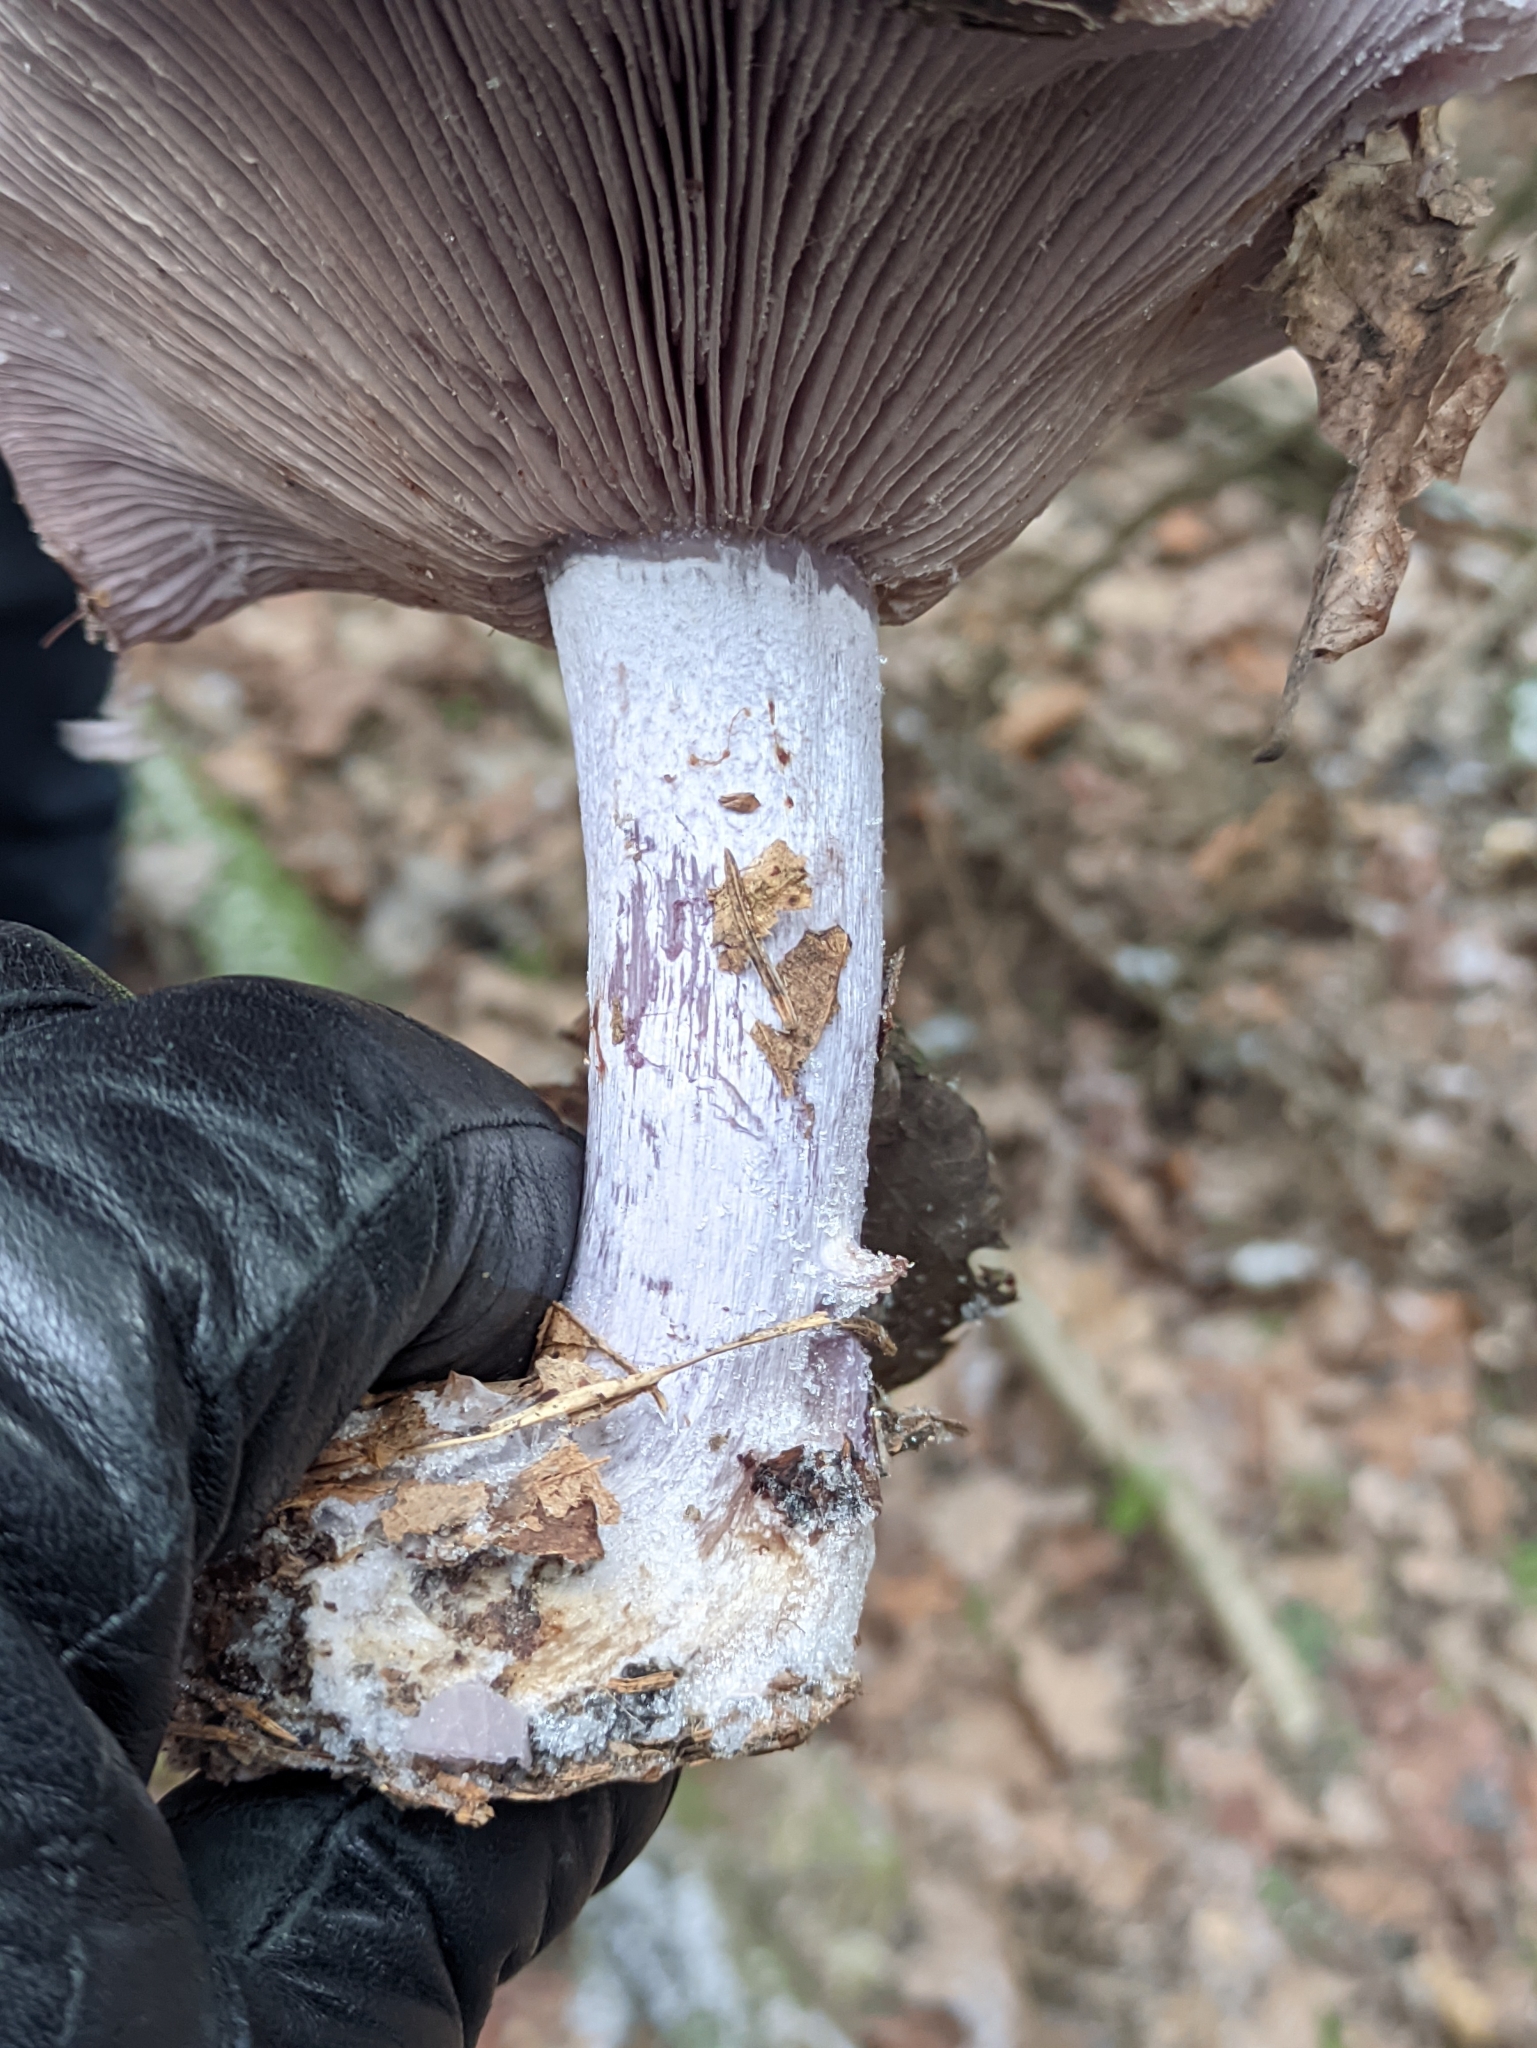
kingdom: Fungi
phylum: Basidiomycota
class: Agaricomycetes
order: Agaricales
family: Tricholomataceae
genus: Collybia
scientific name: Collybia
